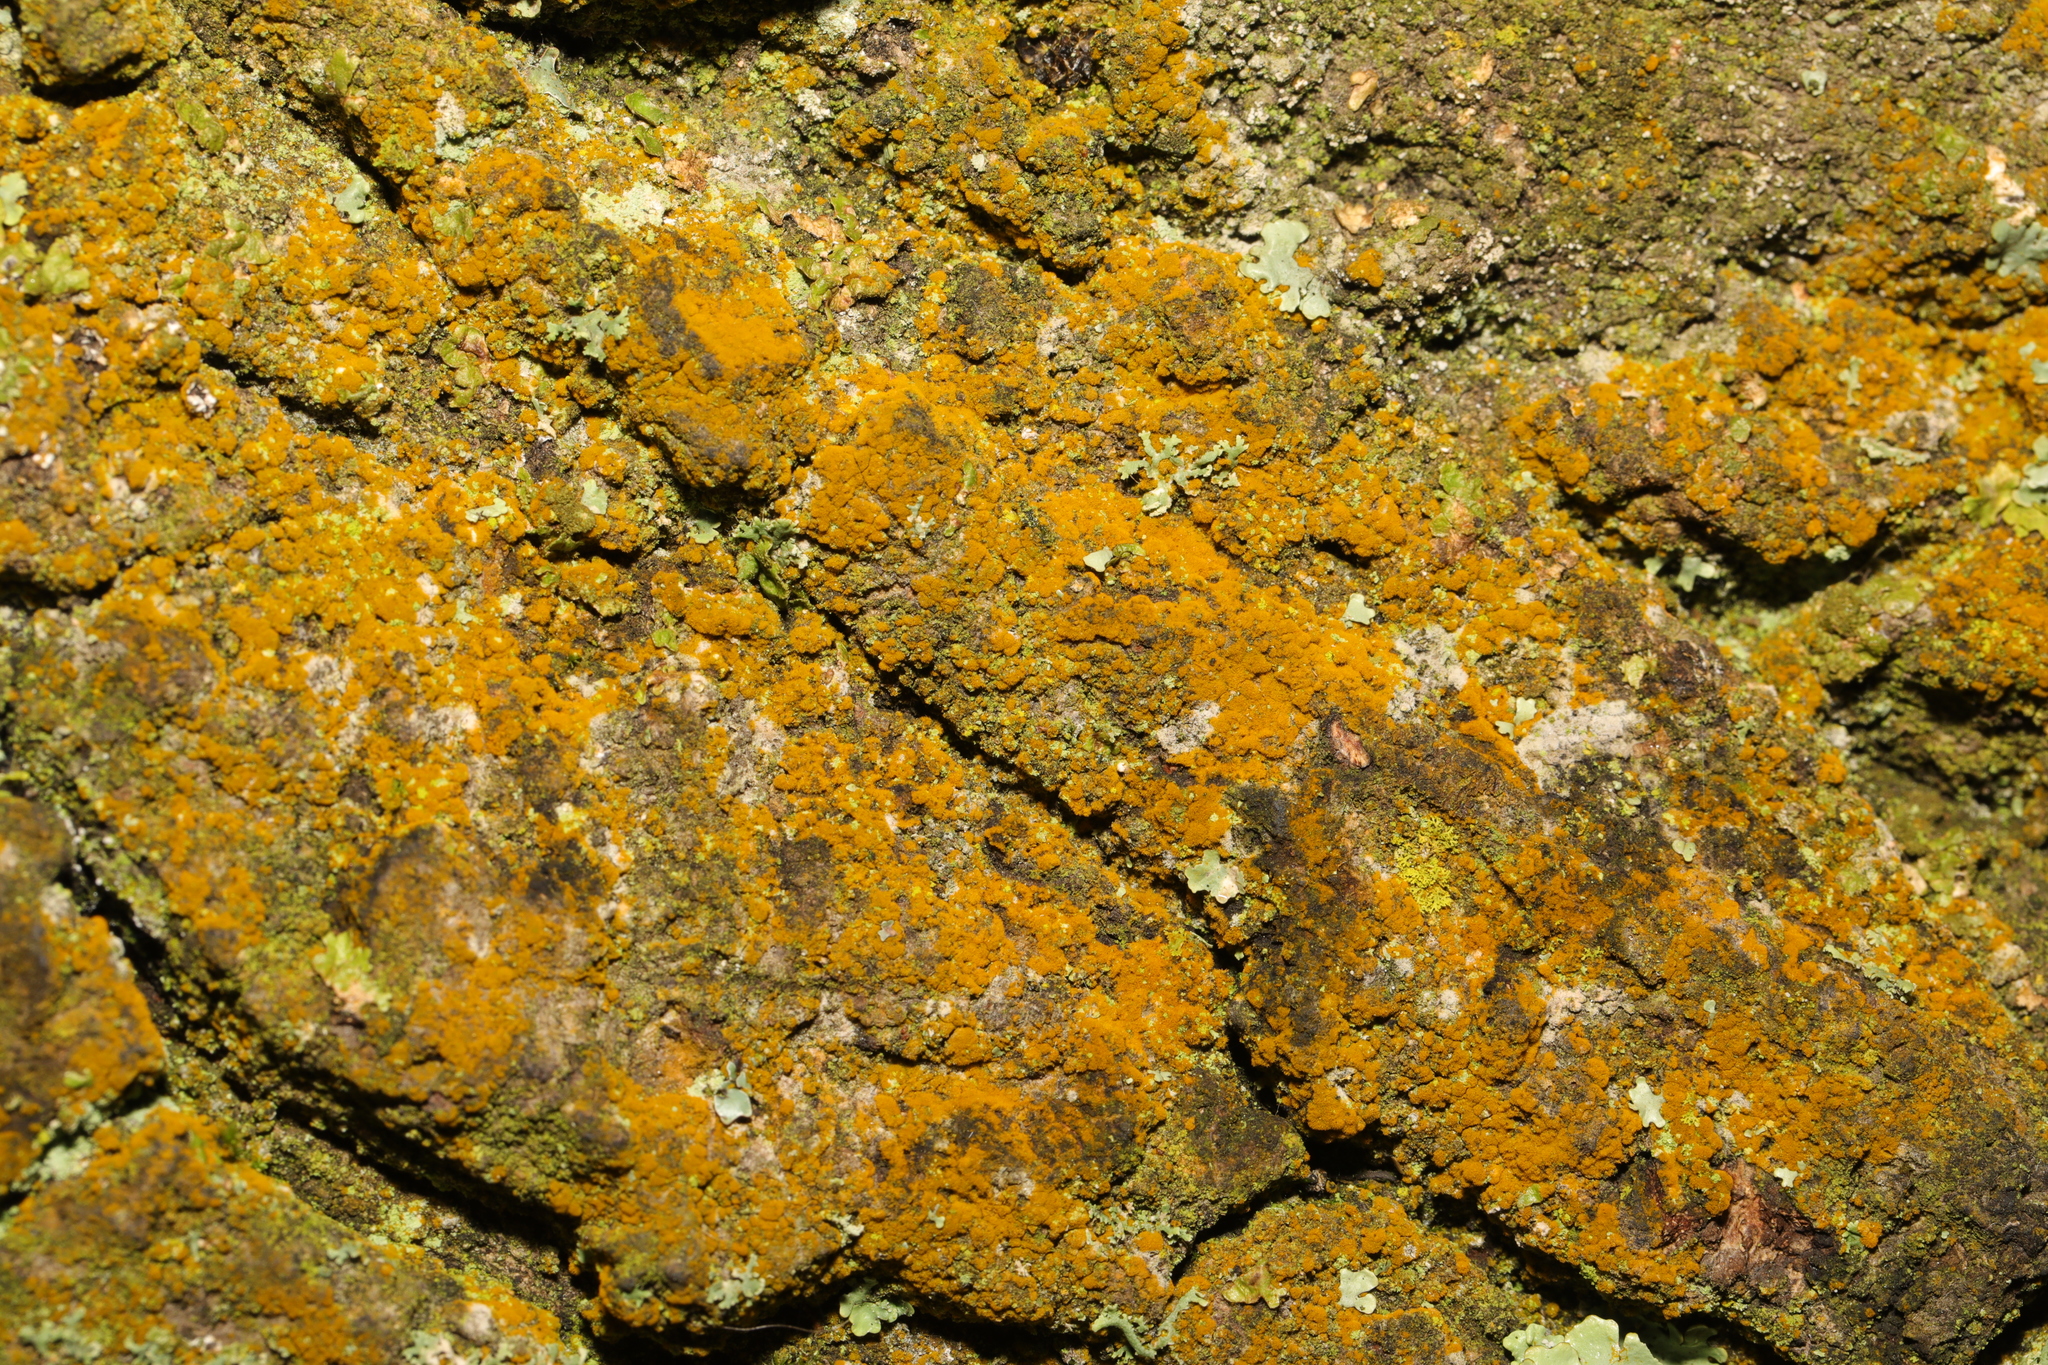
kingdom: Plantae
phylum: Chlorophyta
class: Ulvophyceae
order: Trentepohliales
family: Trentepohliaceae
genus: Trentepohlia
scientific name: Trentepohlia
